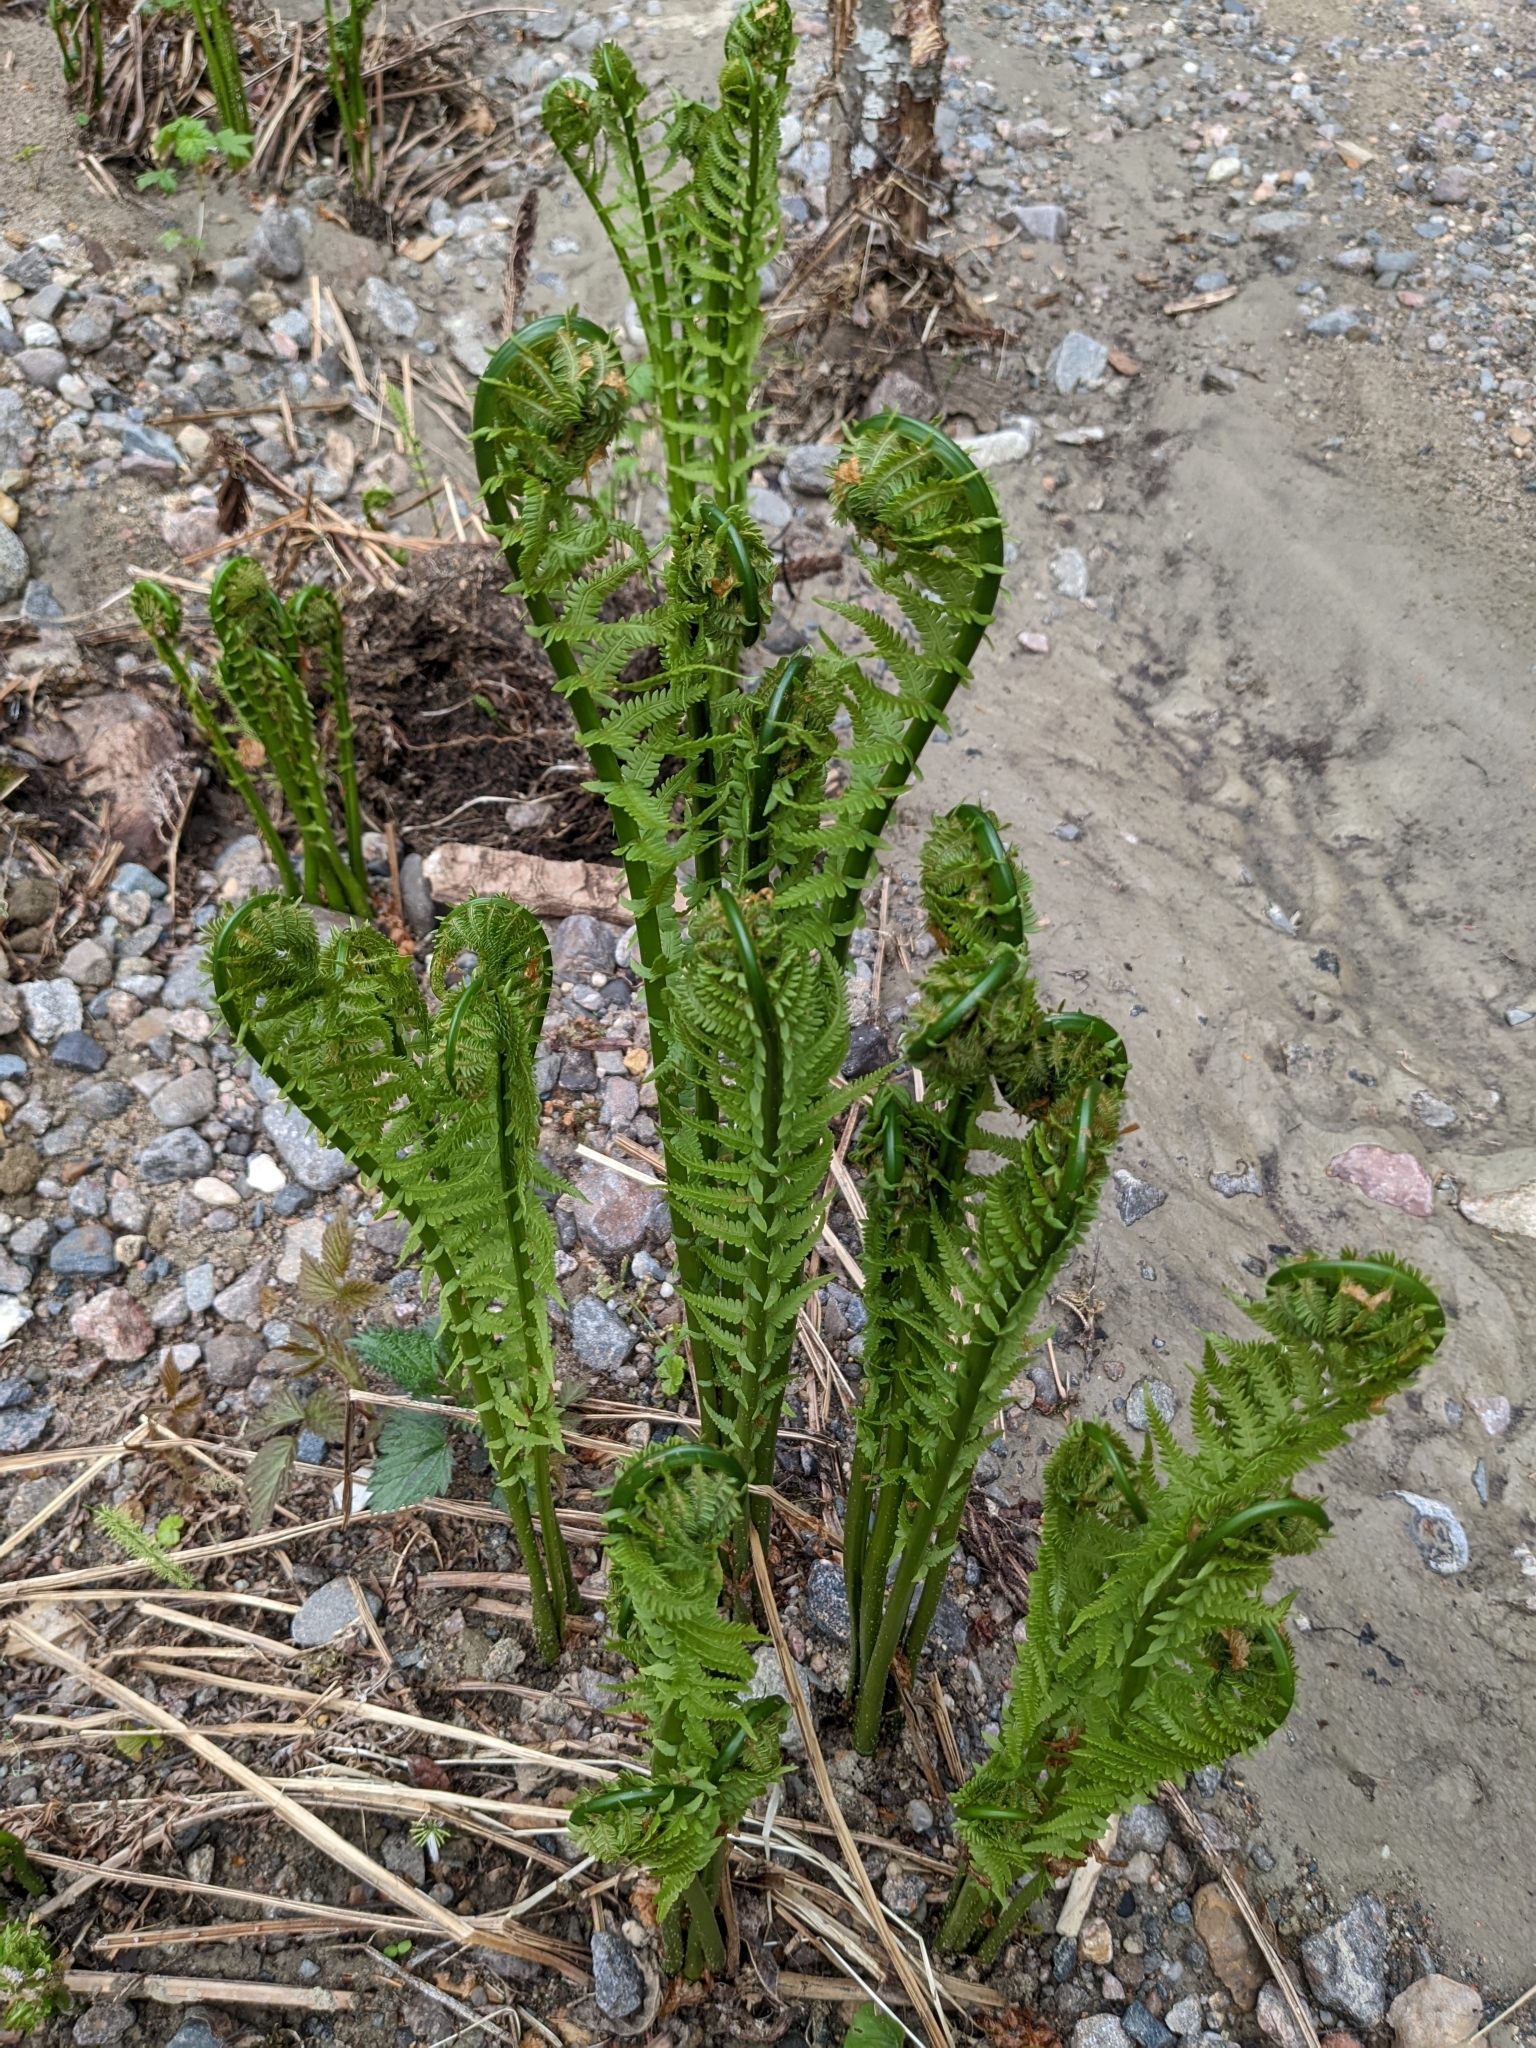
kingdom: Plantae
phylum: Tracheophyta
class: Polypodiopsida
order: Polypodiales
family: Onocleaceae
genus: Matteuccia
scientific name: Matteuccia struthiopteris
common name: Ostrich fern
